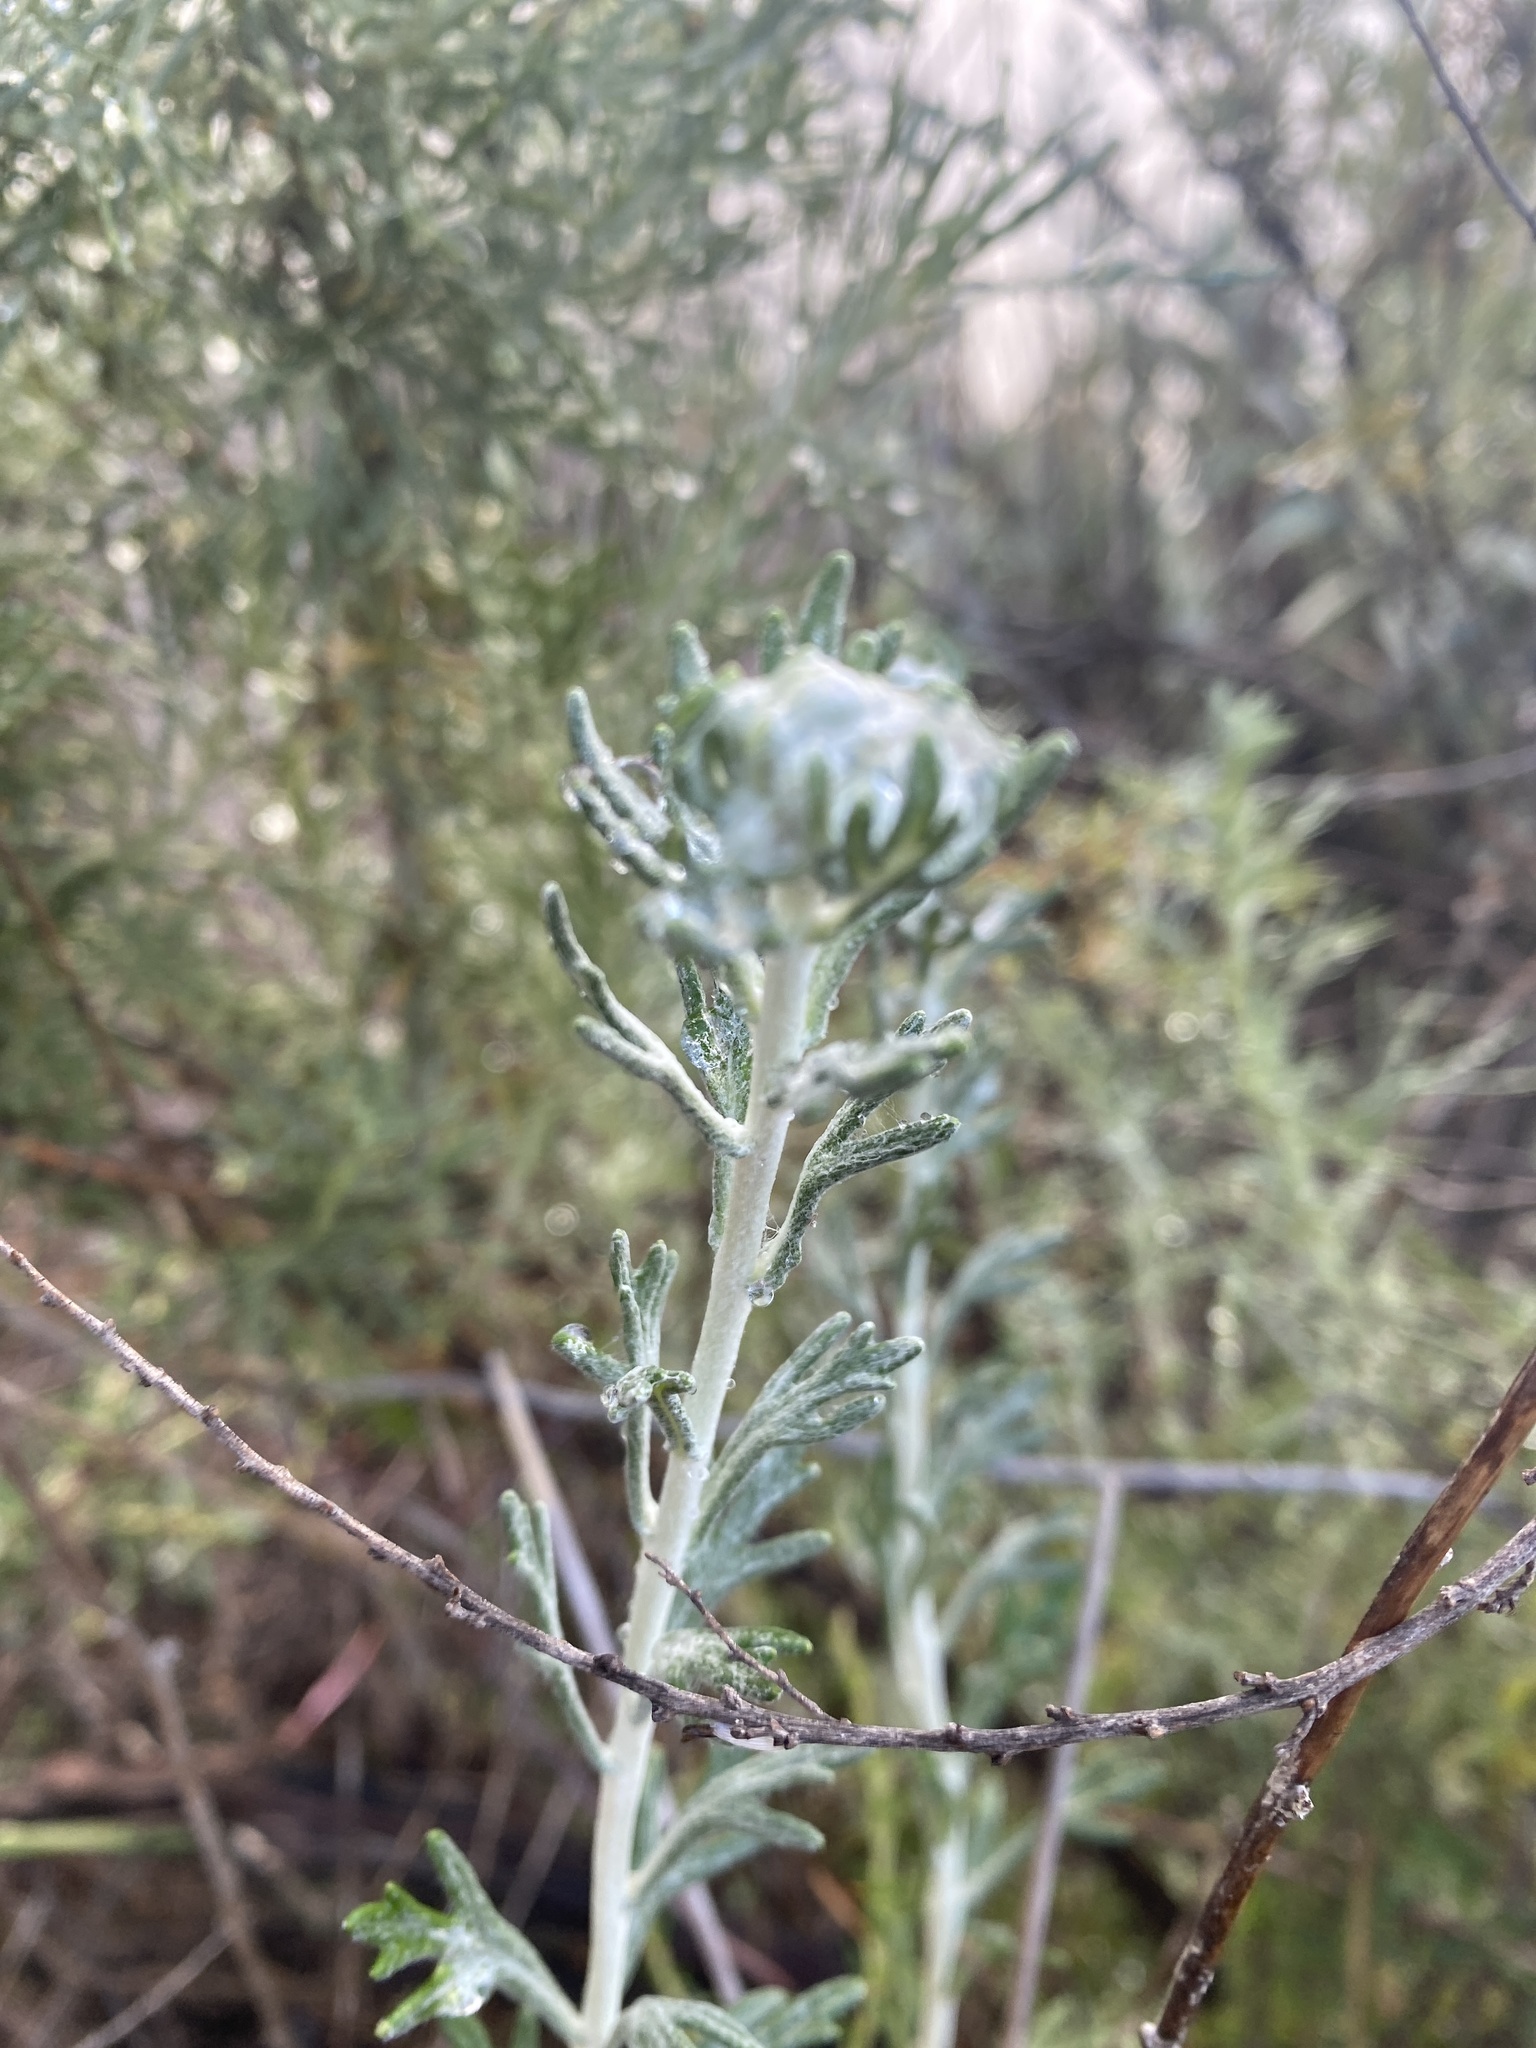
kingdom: Plantae
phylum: Tracheophyta
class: Magnoliopsida
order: Asterales
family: Asteraceae
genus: Eriophyllum
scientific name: Eriophyllum confertiflorum
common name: Golden-yarrow
